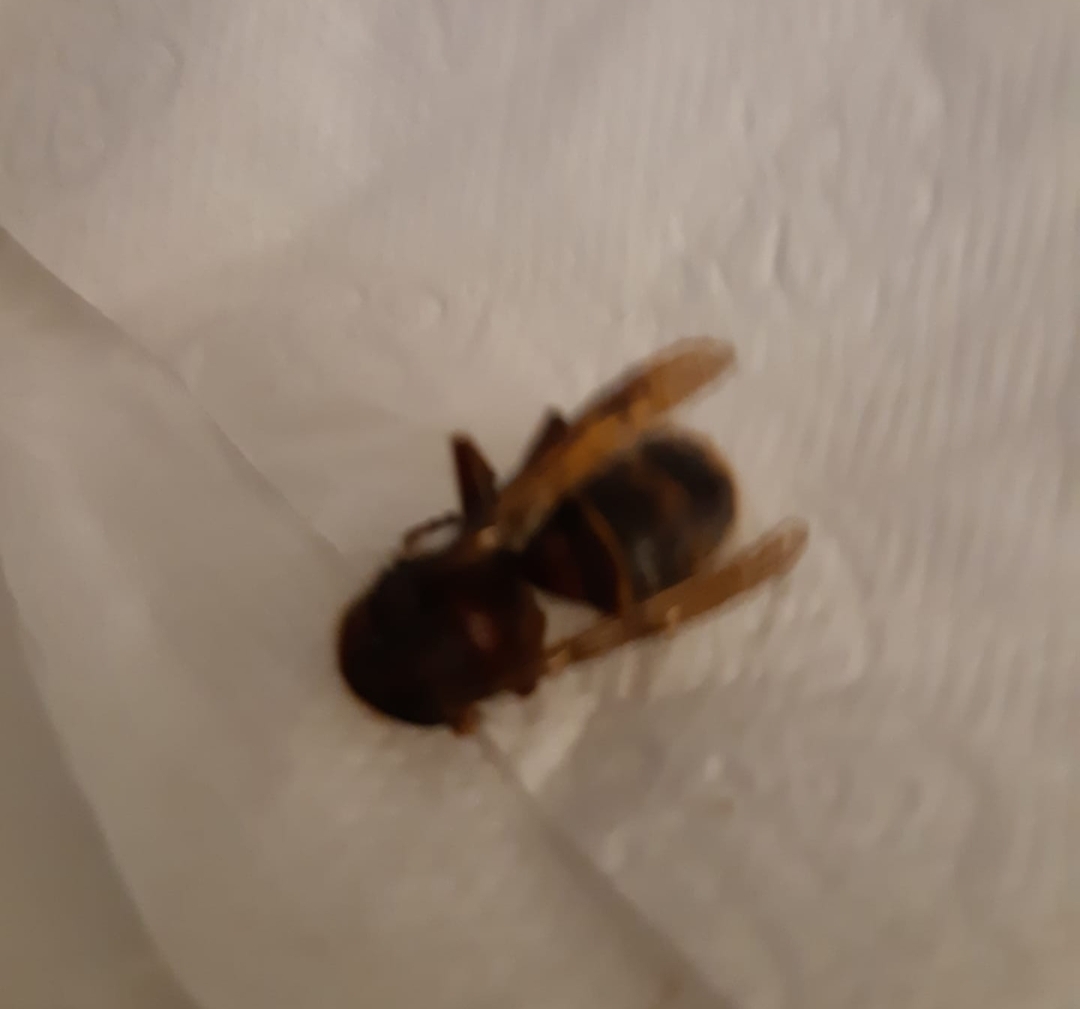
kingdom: Animalia
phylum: Arthropoda
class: Insecta
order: Hymenoptera
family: Vespidae
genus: Vespa
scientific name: Vespa crabro
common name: Hornet
